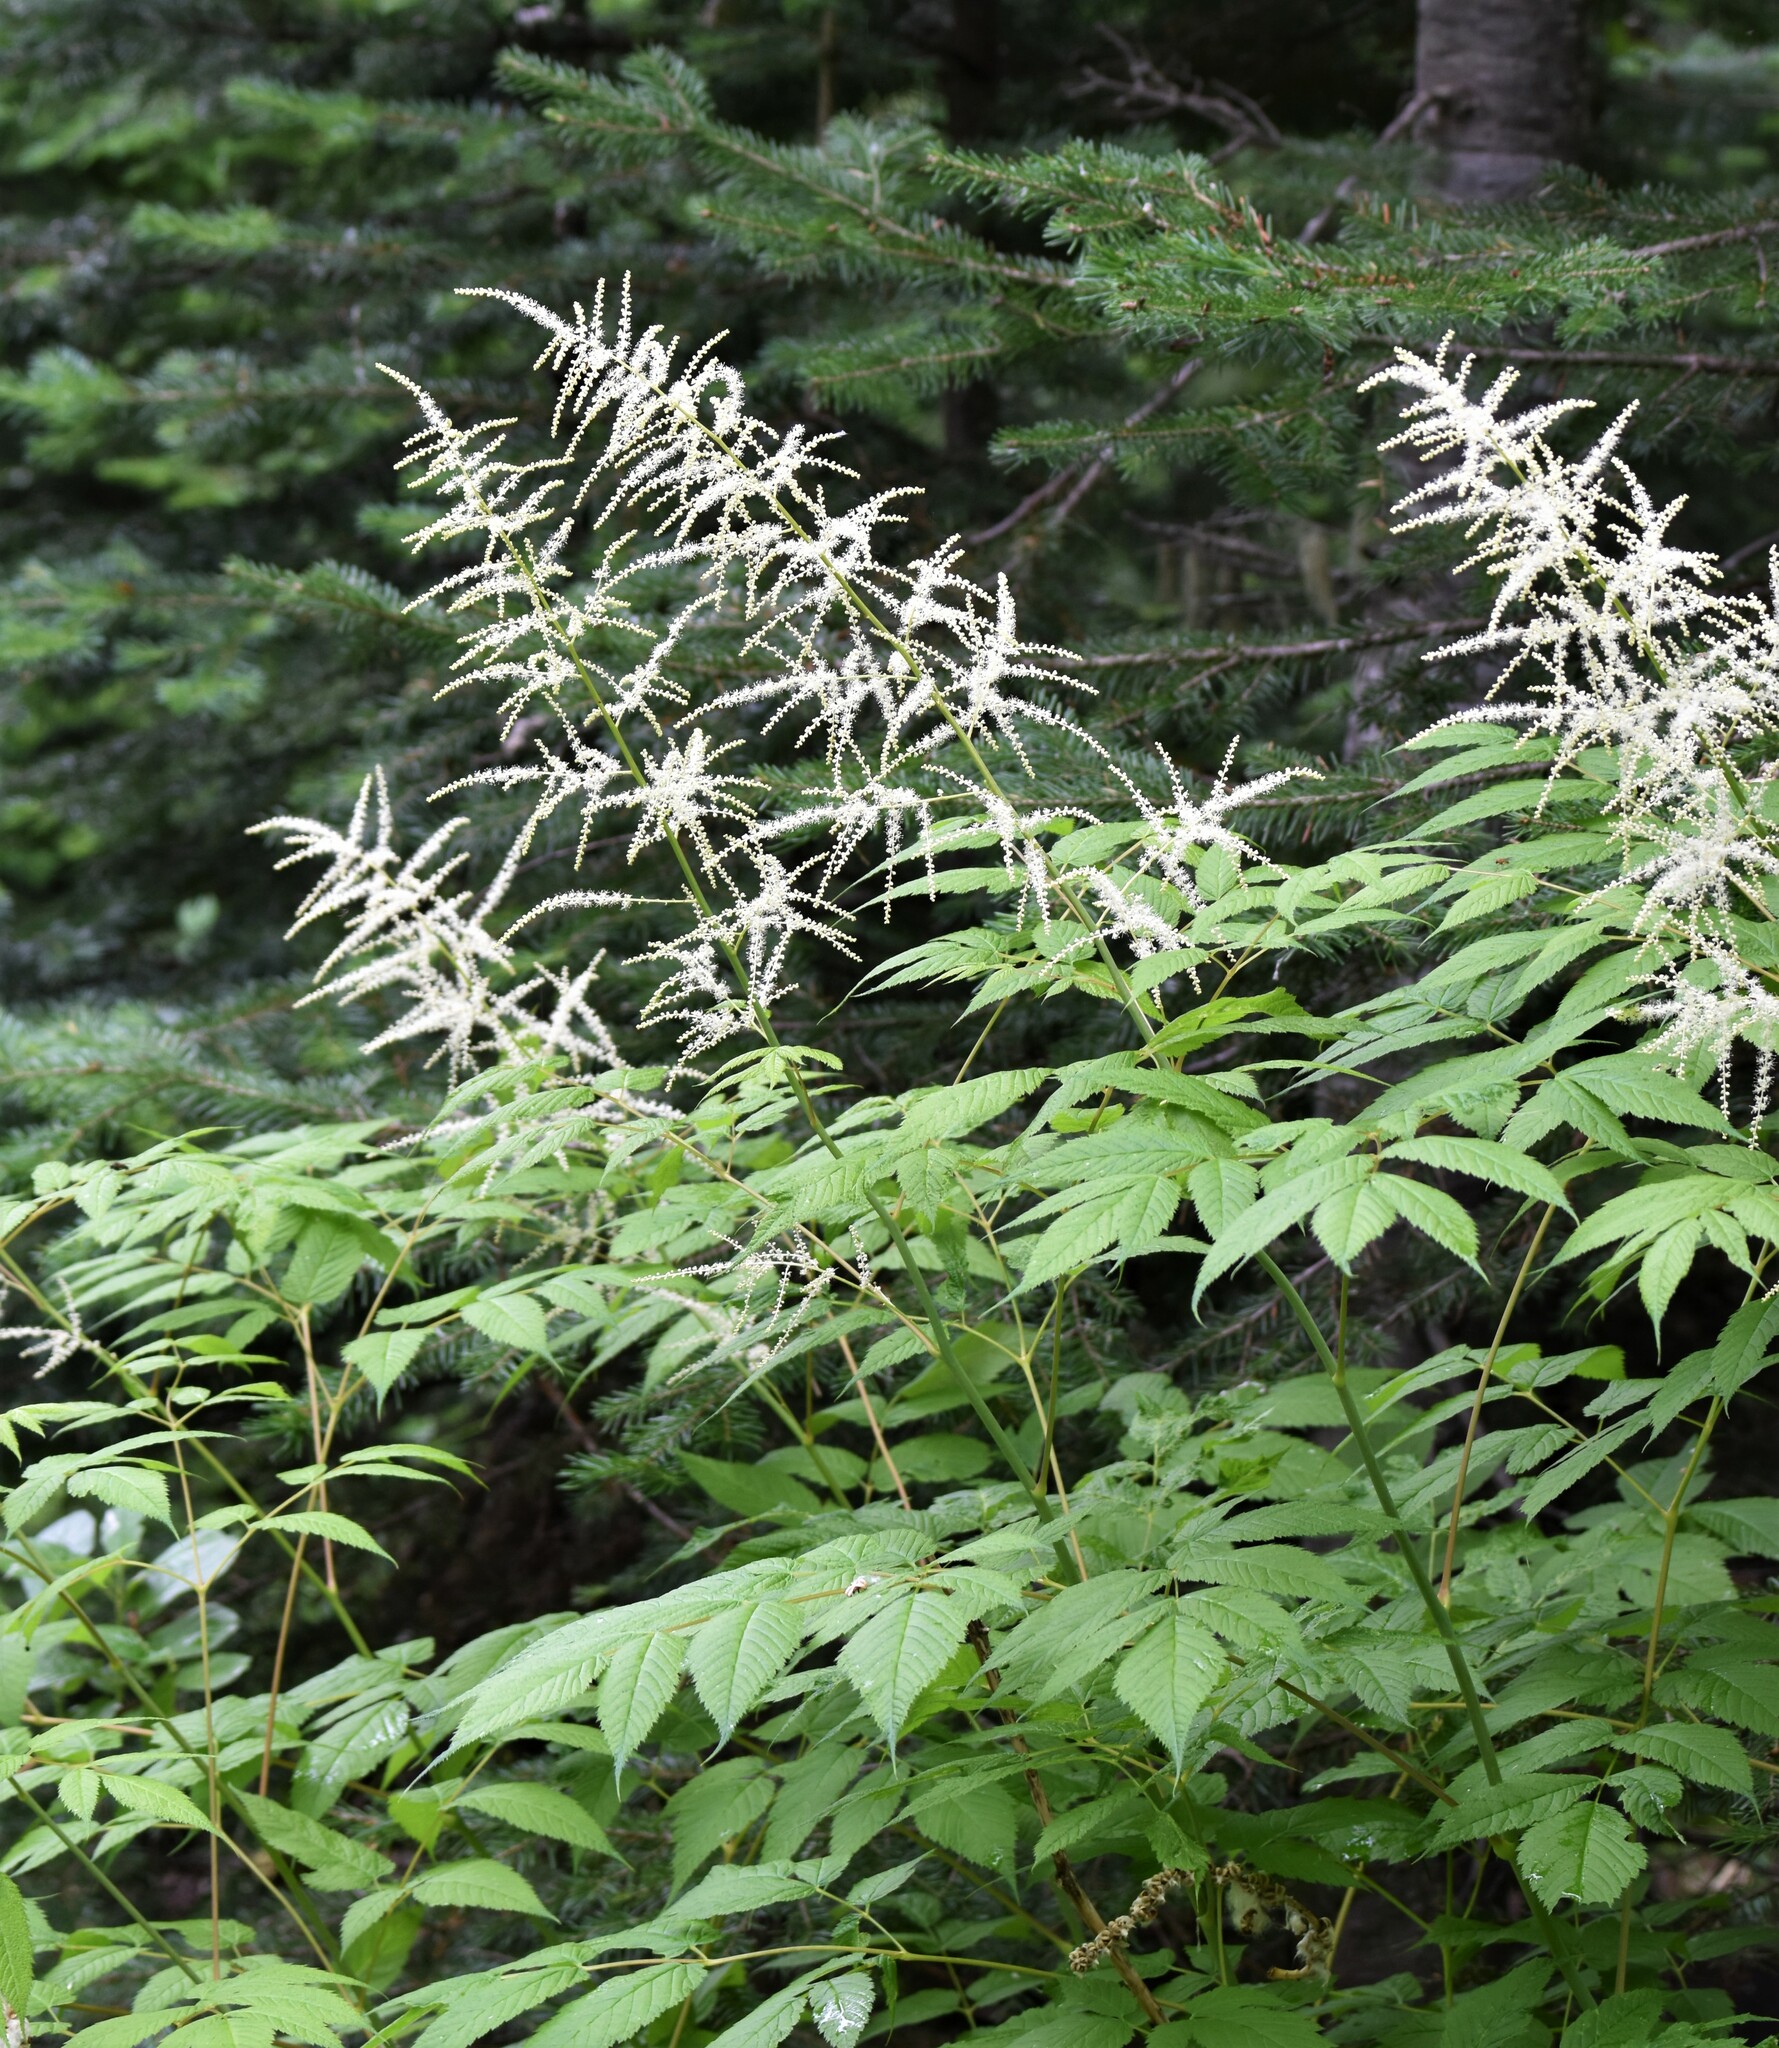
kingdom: Plantae
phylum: Tracheophyta
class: Magnoliopsida
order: Rosales
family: Rosaceae
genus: Aruncus
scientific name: Aruncus dioicus
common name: Buck's-beard
